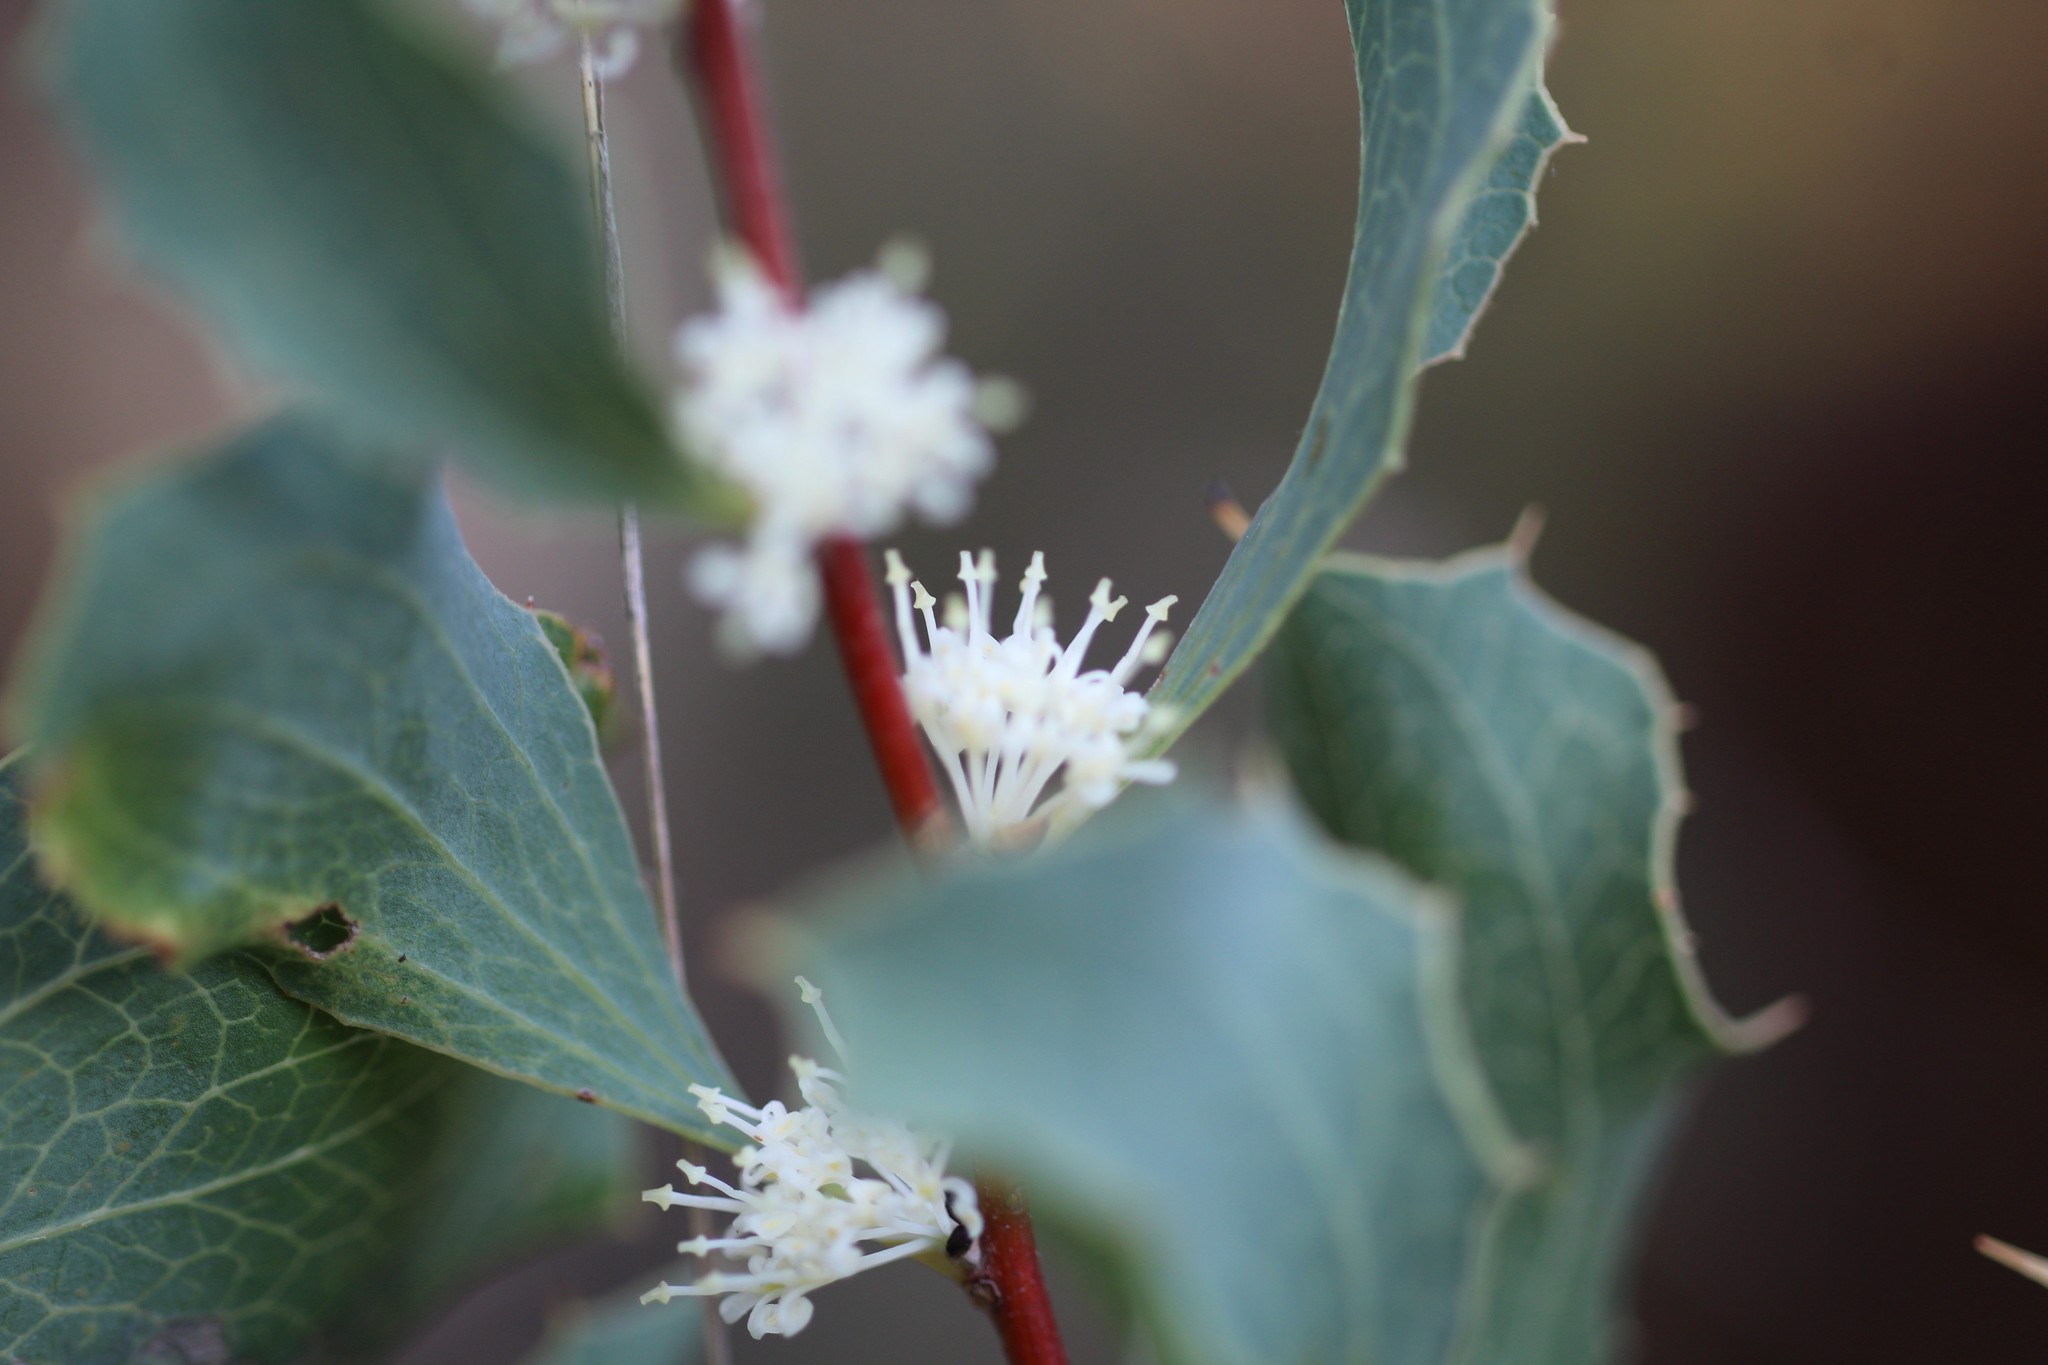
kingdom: Plantae
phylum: Tracheophyta
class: Magnoliopsida
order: Proteales
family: Proteaceae
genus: Hakea
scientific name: Hakea undulata
